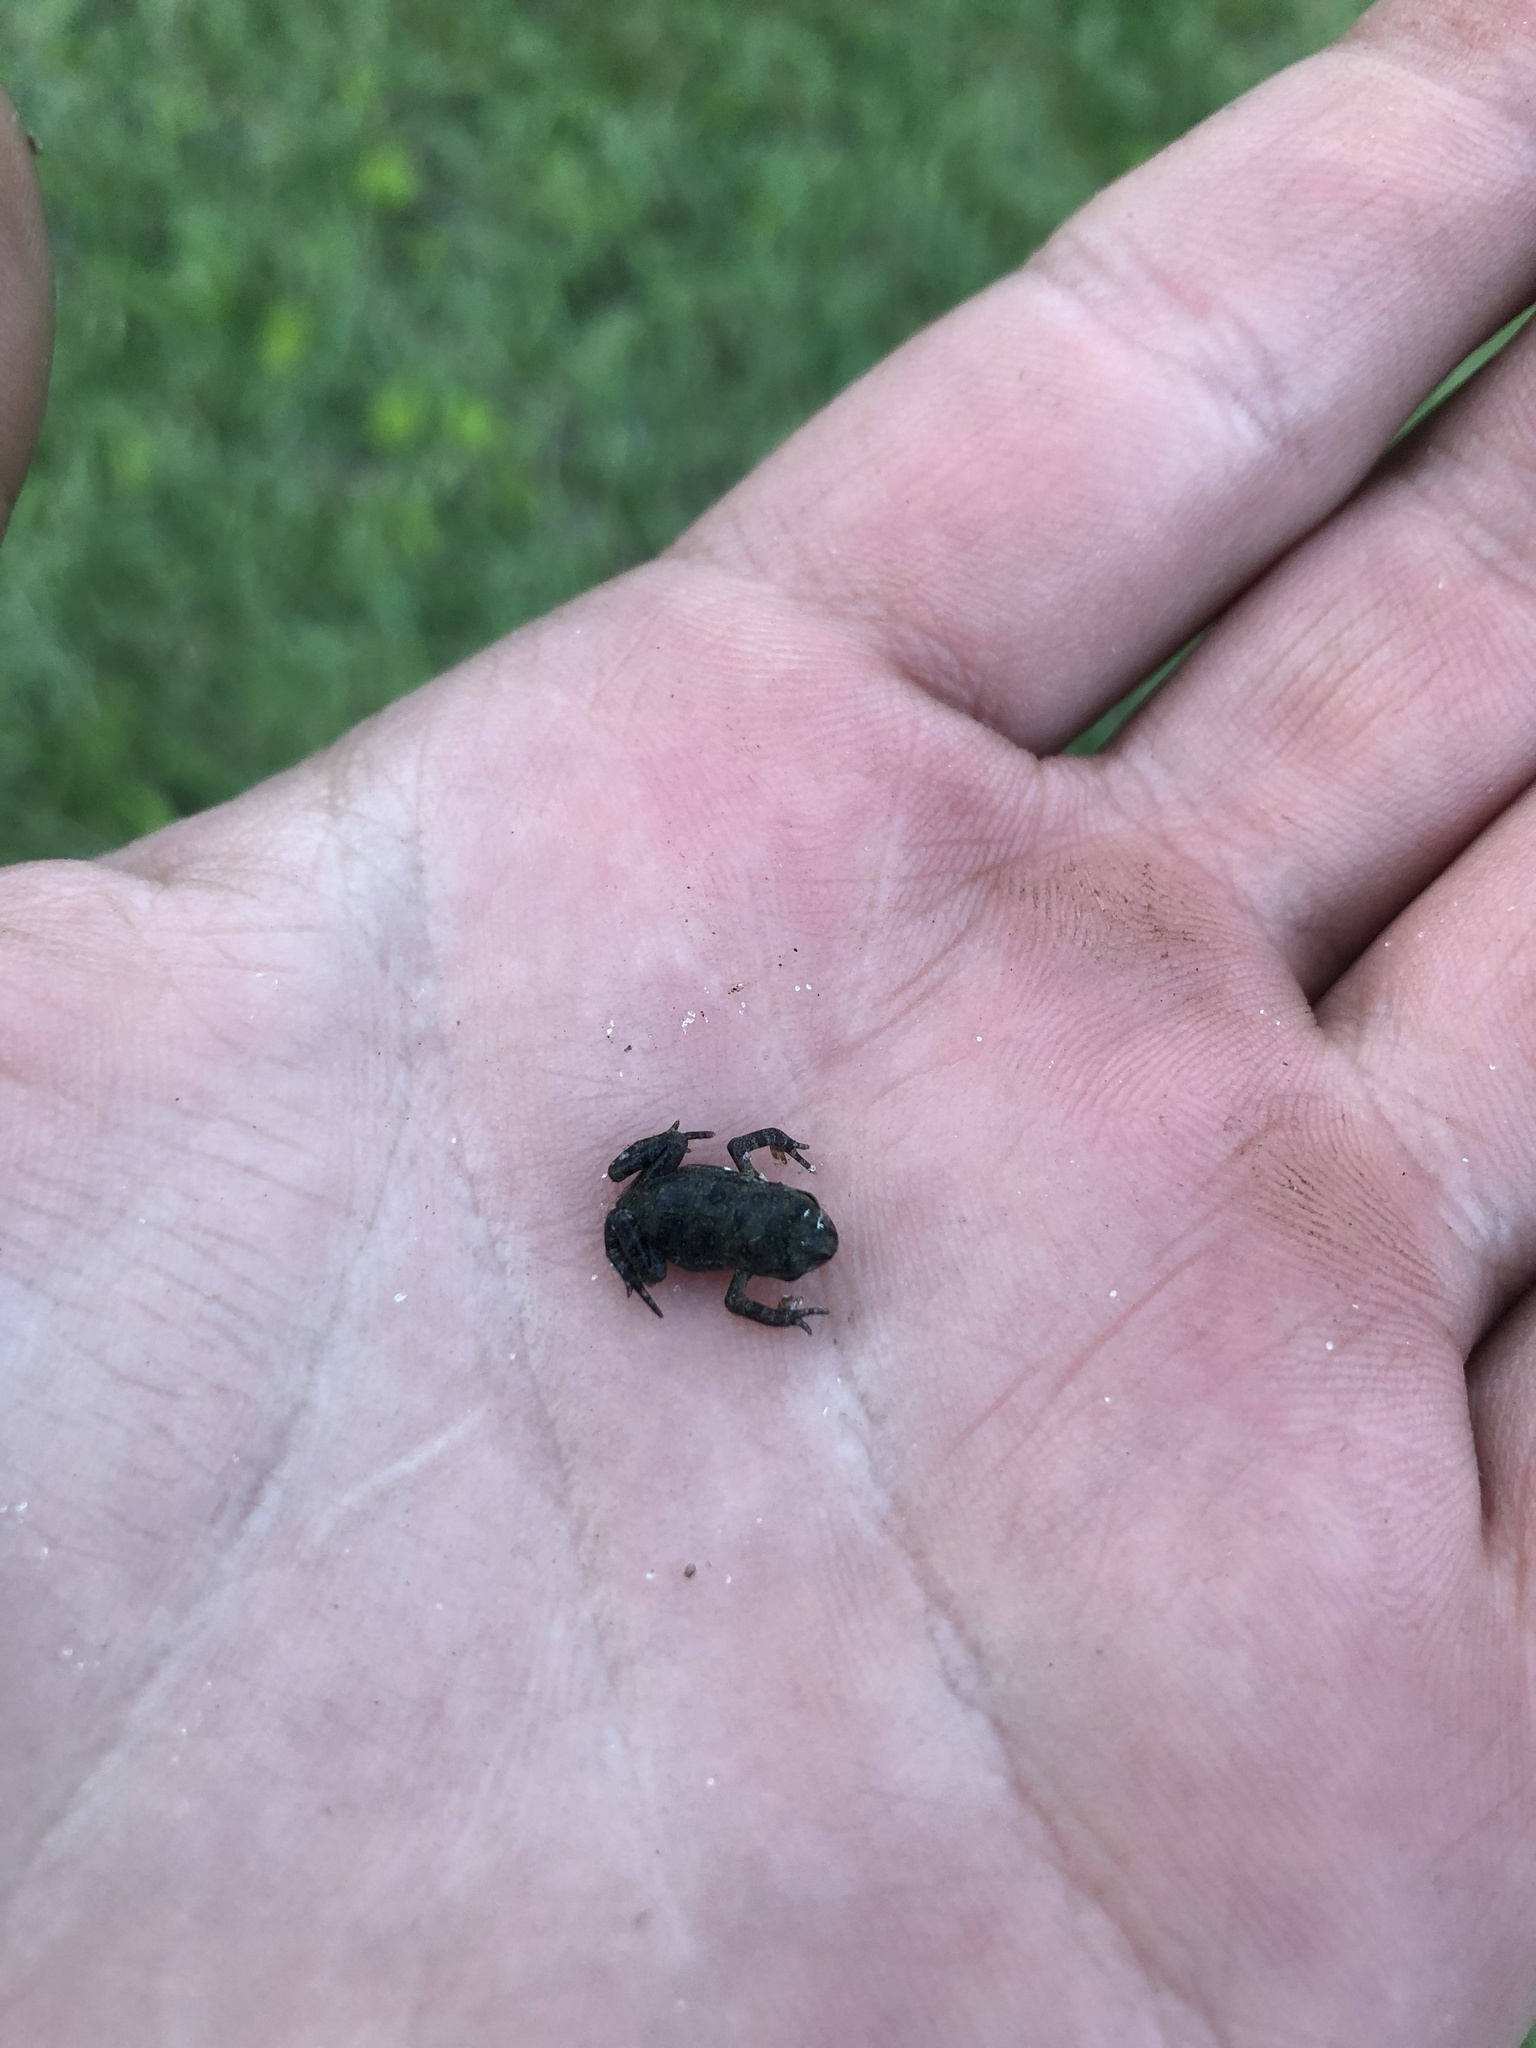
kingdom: Animalia
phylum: Chordata
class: Amphibia
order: Anura
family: Bufonidae
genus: Anaxyrus
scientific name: Anaxyrus terrestris
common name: Southern toad
